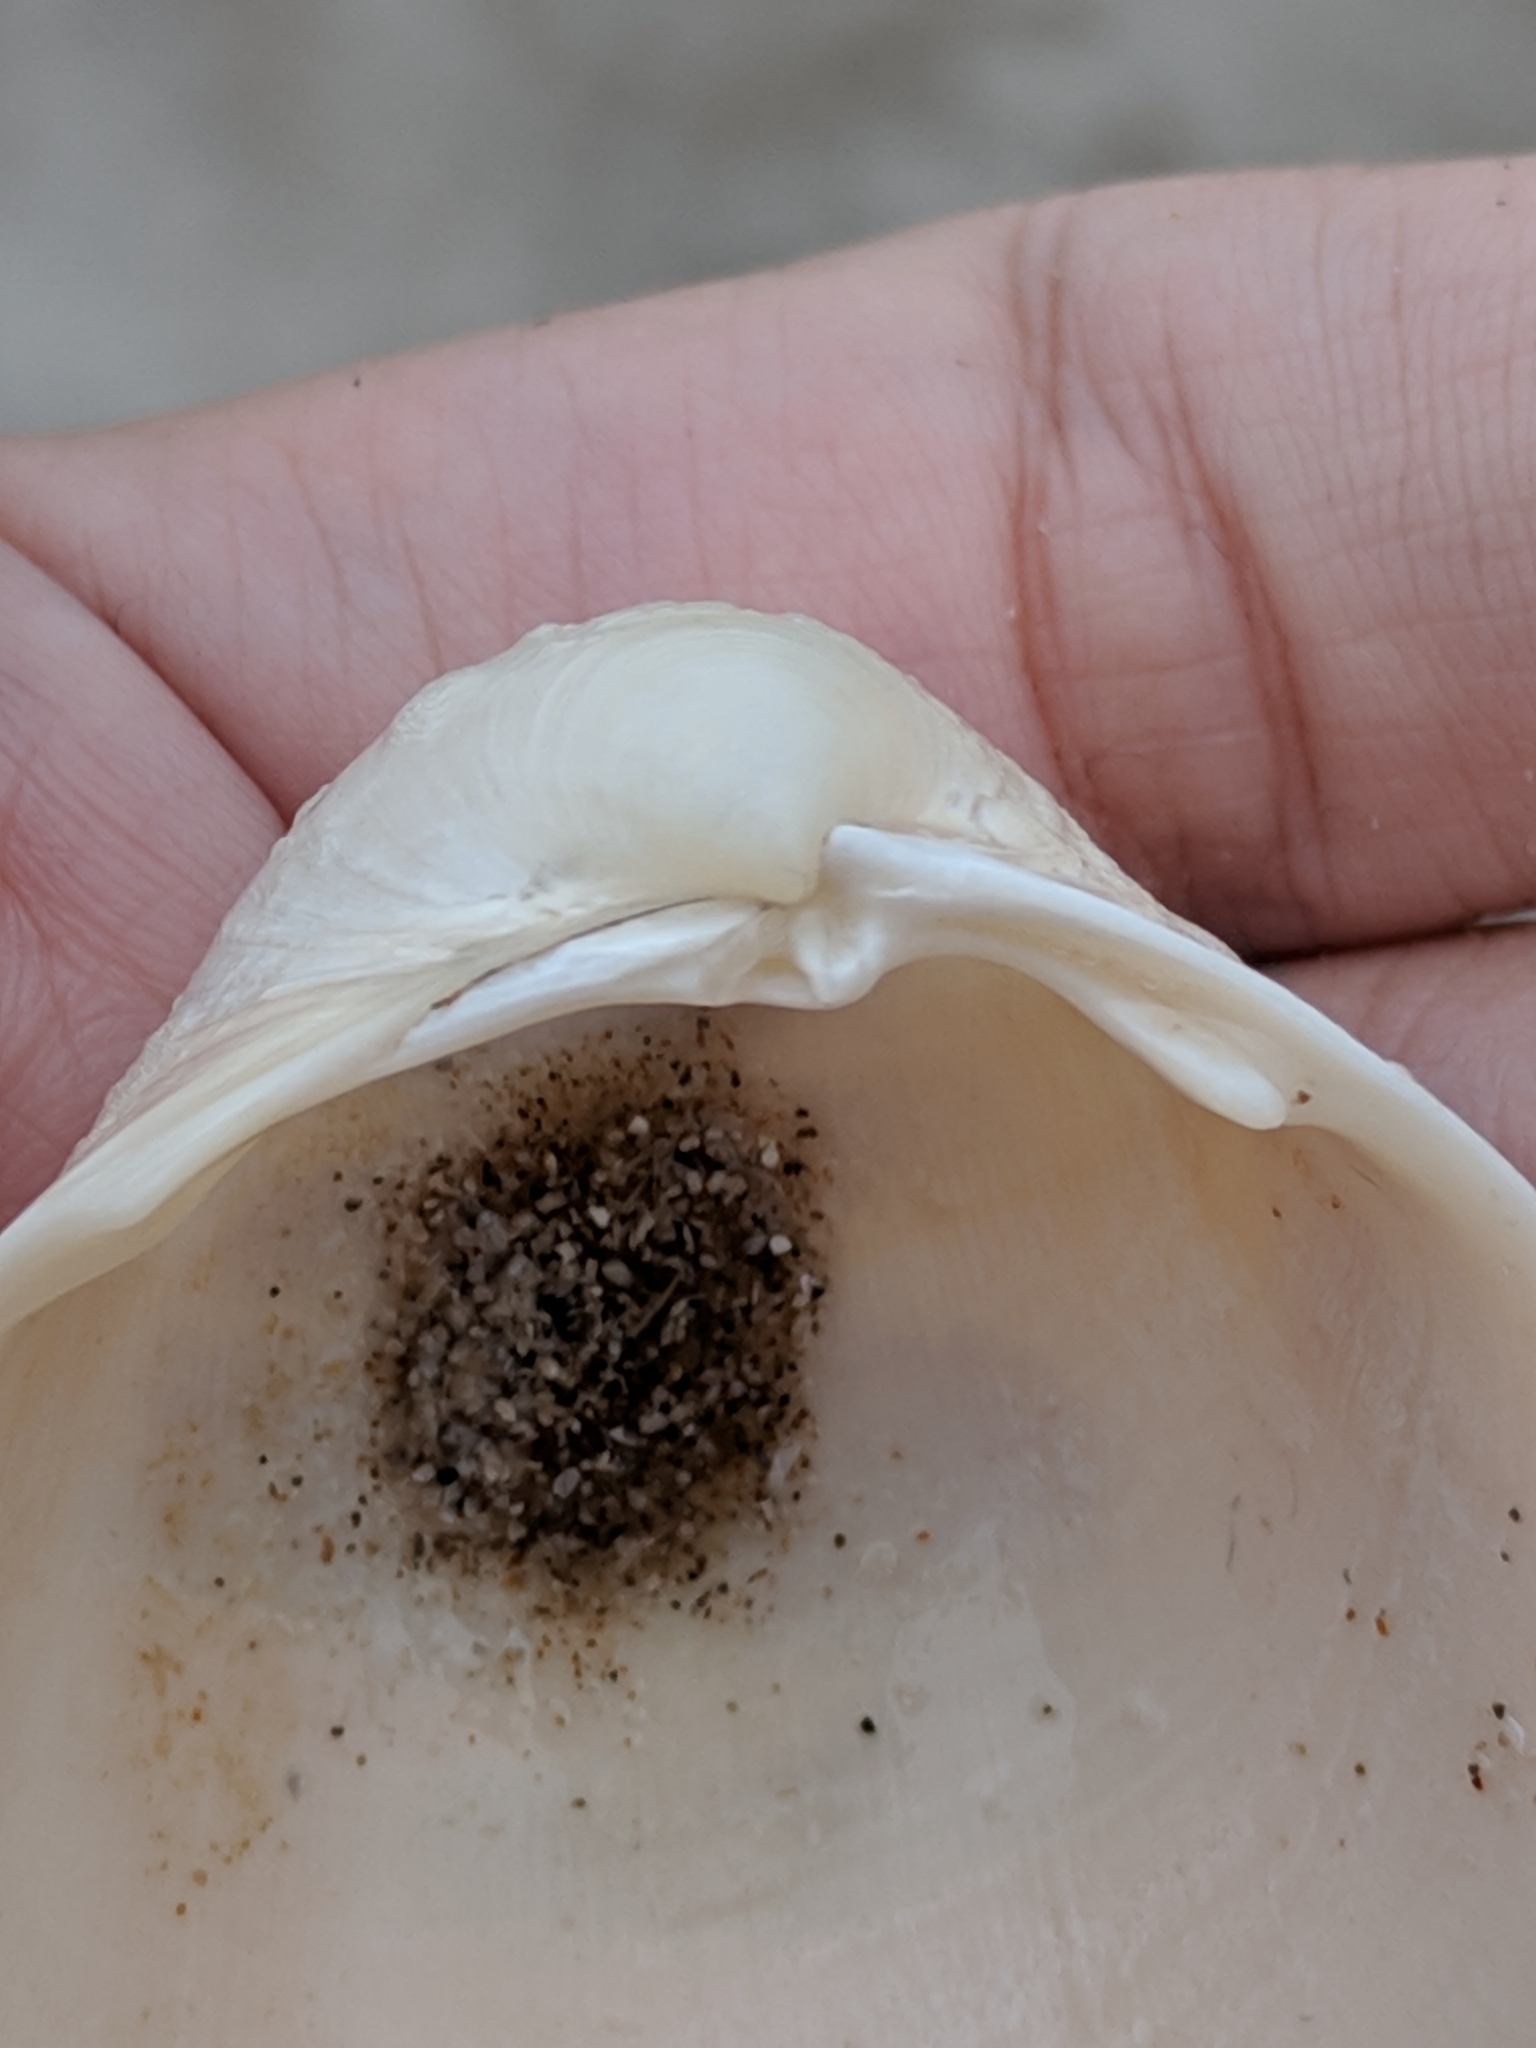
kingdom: Animalia
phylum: Mollusca
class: Bivalvia
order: Cardiida
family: Cardiidae
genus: Laevicardium
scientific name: Laevicardium serratum
